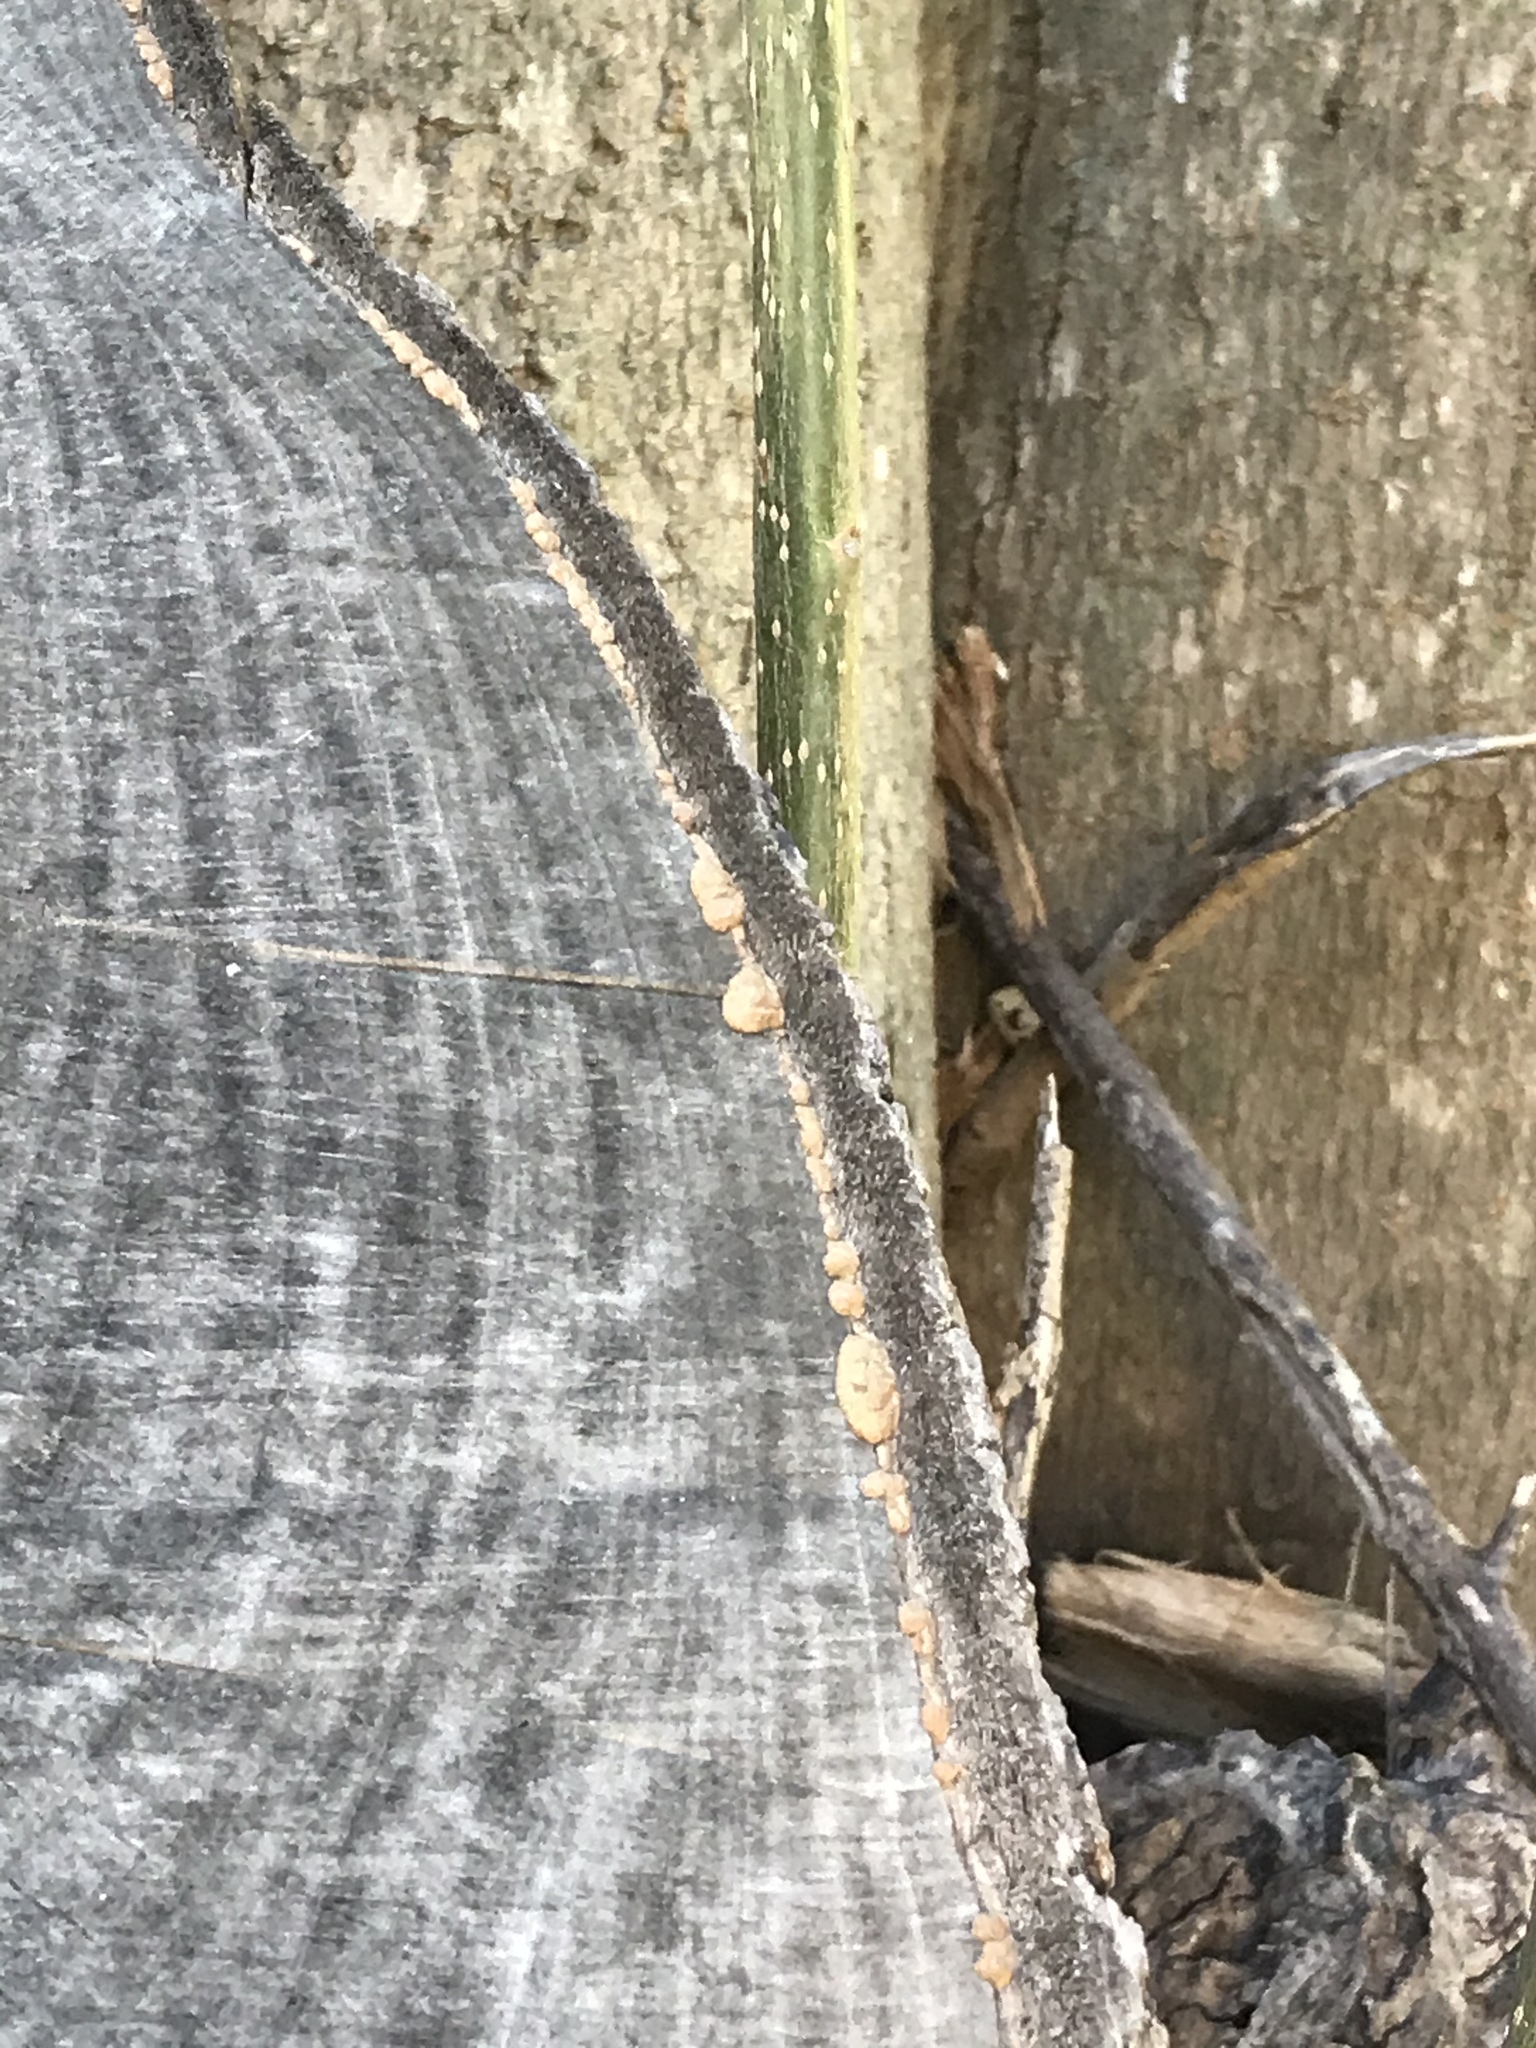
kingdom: Plantae
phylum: Tracheophyta
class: Magnoliopsida
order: Lamiales
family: Oleaceae
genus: Ligustrum
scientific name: Ligustrum lucidum
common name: Glossy privet
